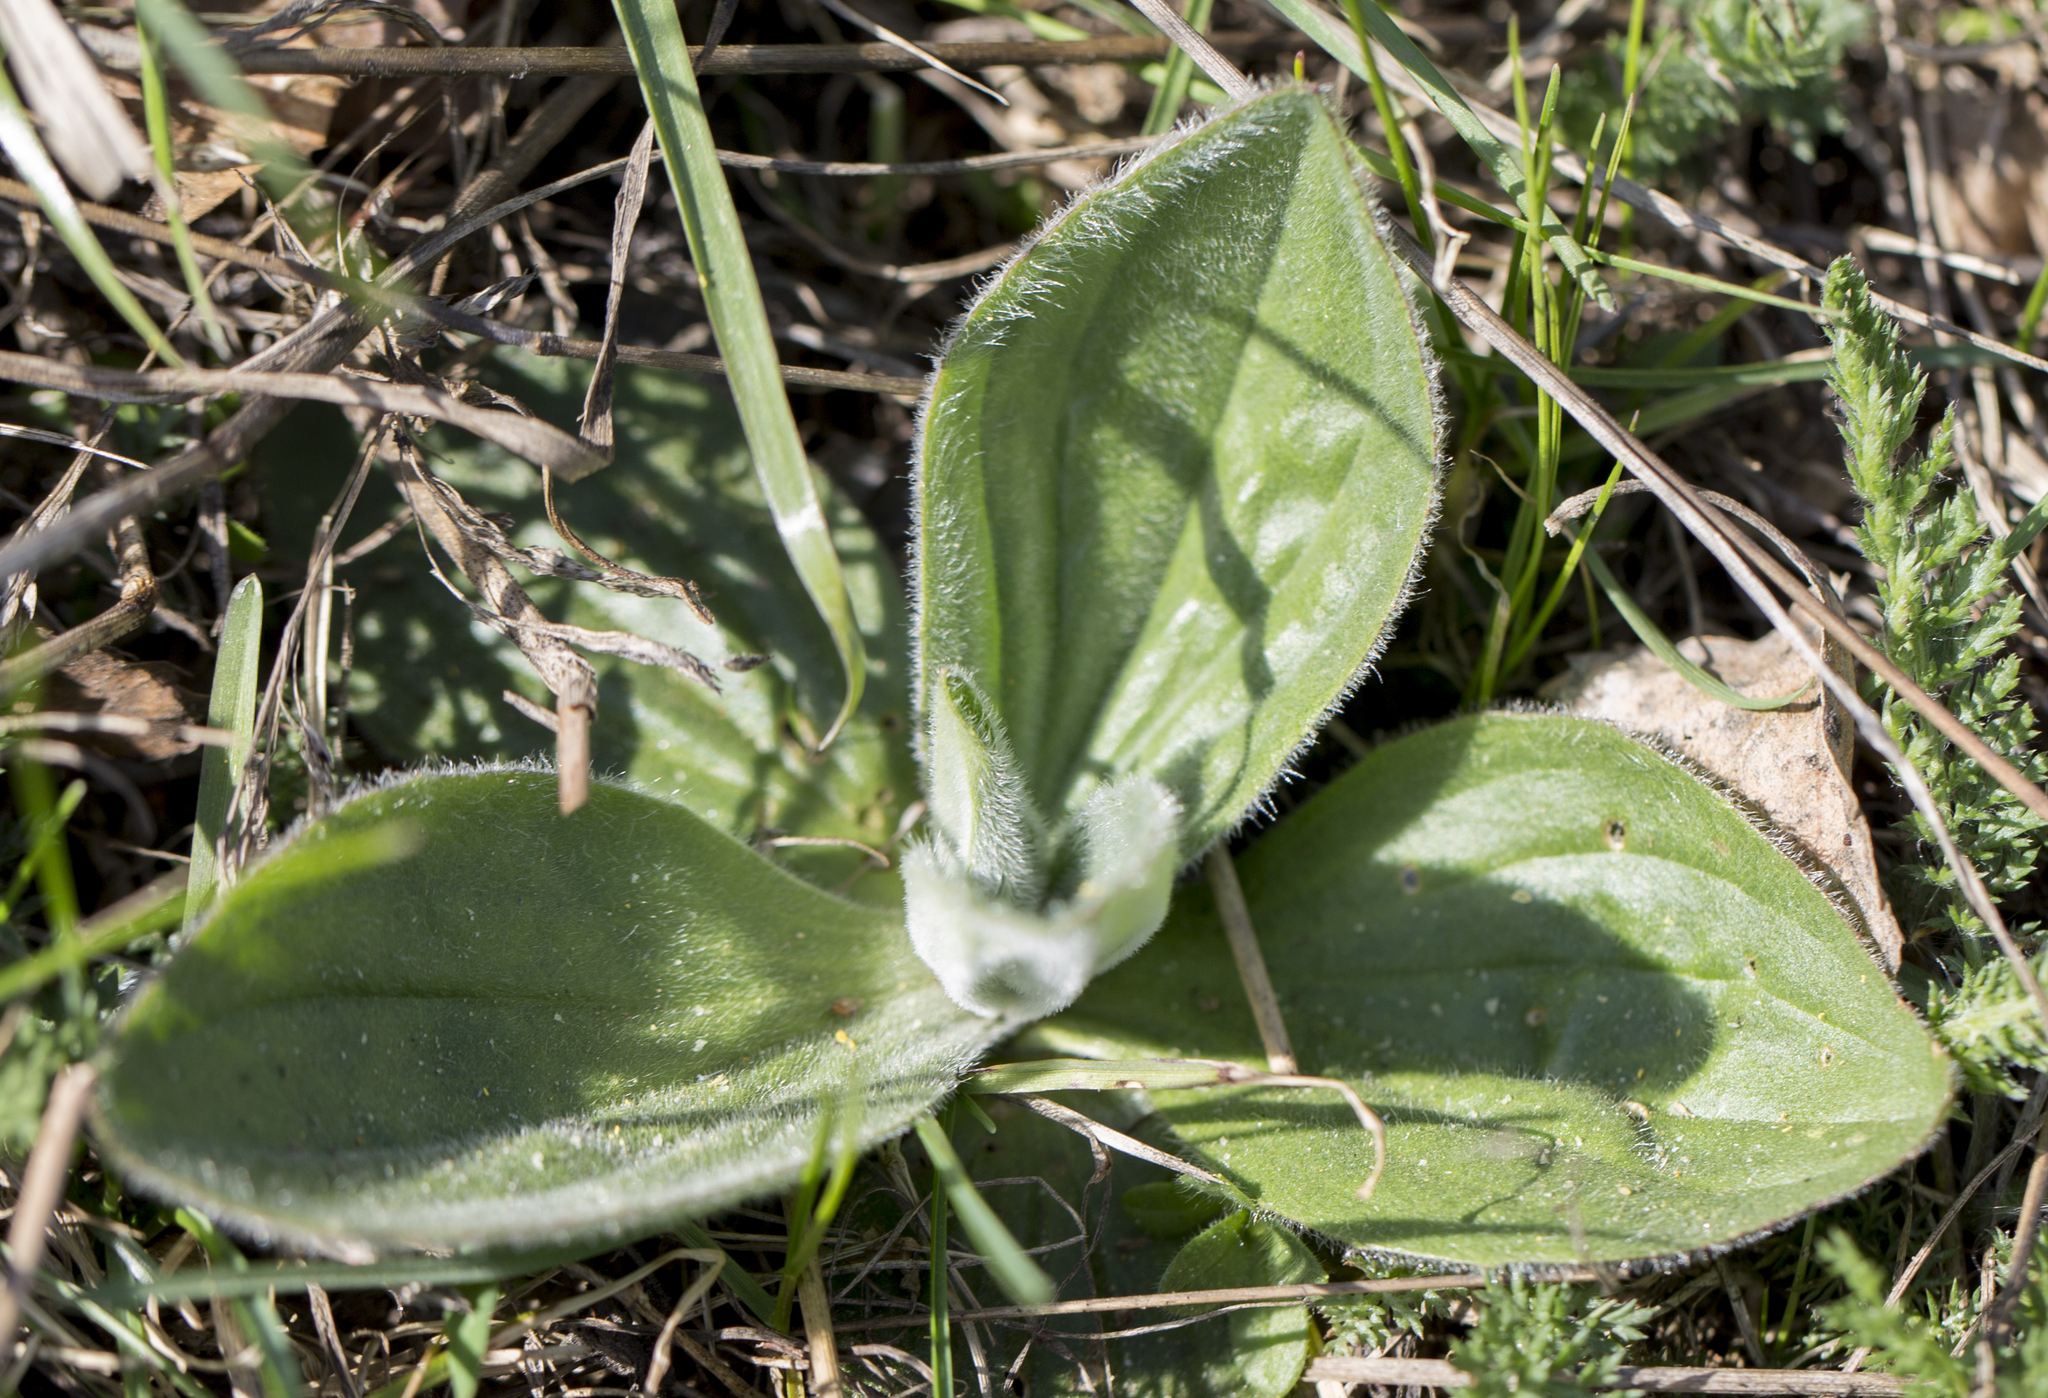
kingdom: Plantae
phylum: Tracheophyta
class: Magnoliopsida
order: Lamiales
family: Plantaginaceae
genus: Plantago
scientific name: Plantago media
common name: Hoary plantain
